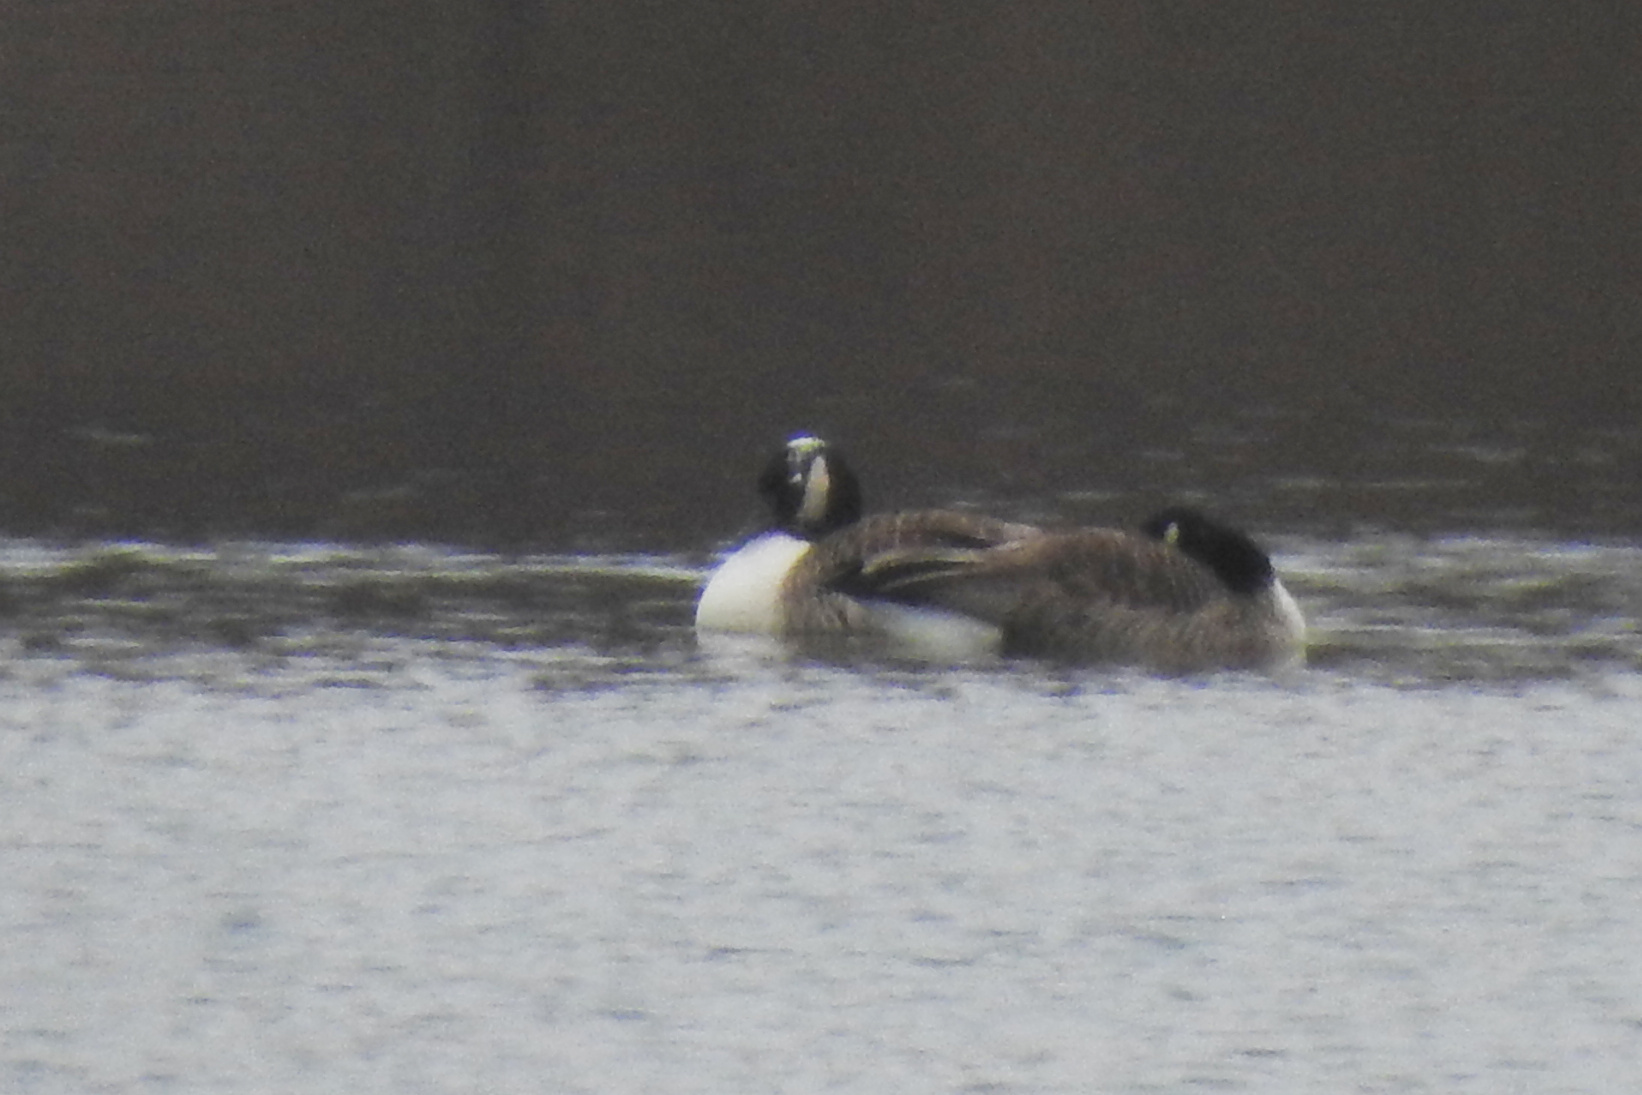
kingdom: Animalia
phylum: Chordata
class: Aves
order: Anseriformes
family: Anatidae
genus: Branta
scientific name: Branta canadensis
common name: Canada goose
